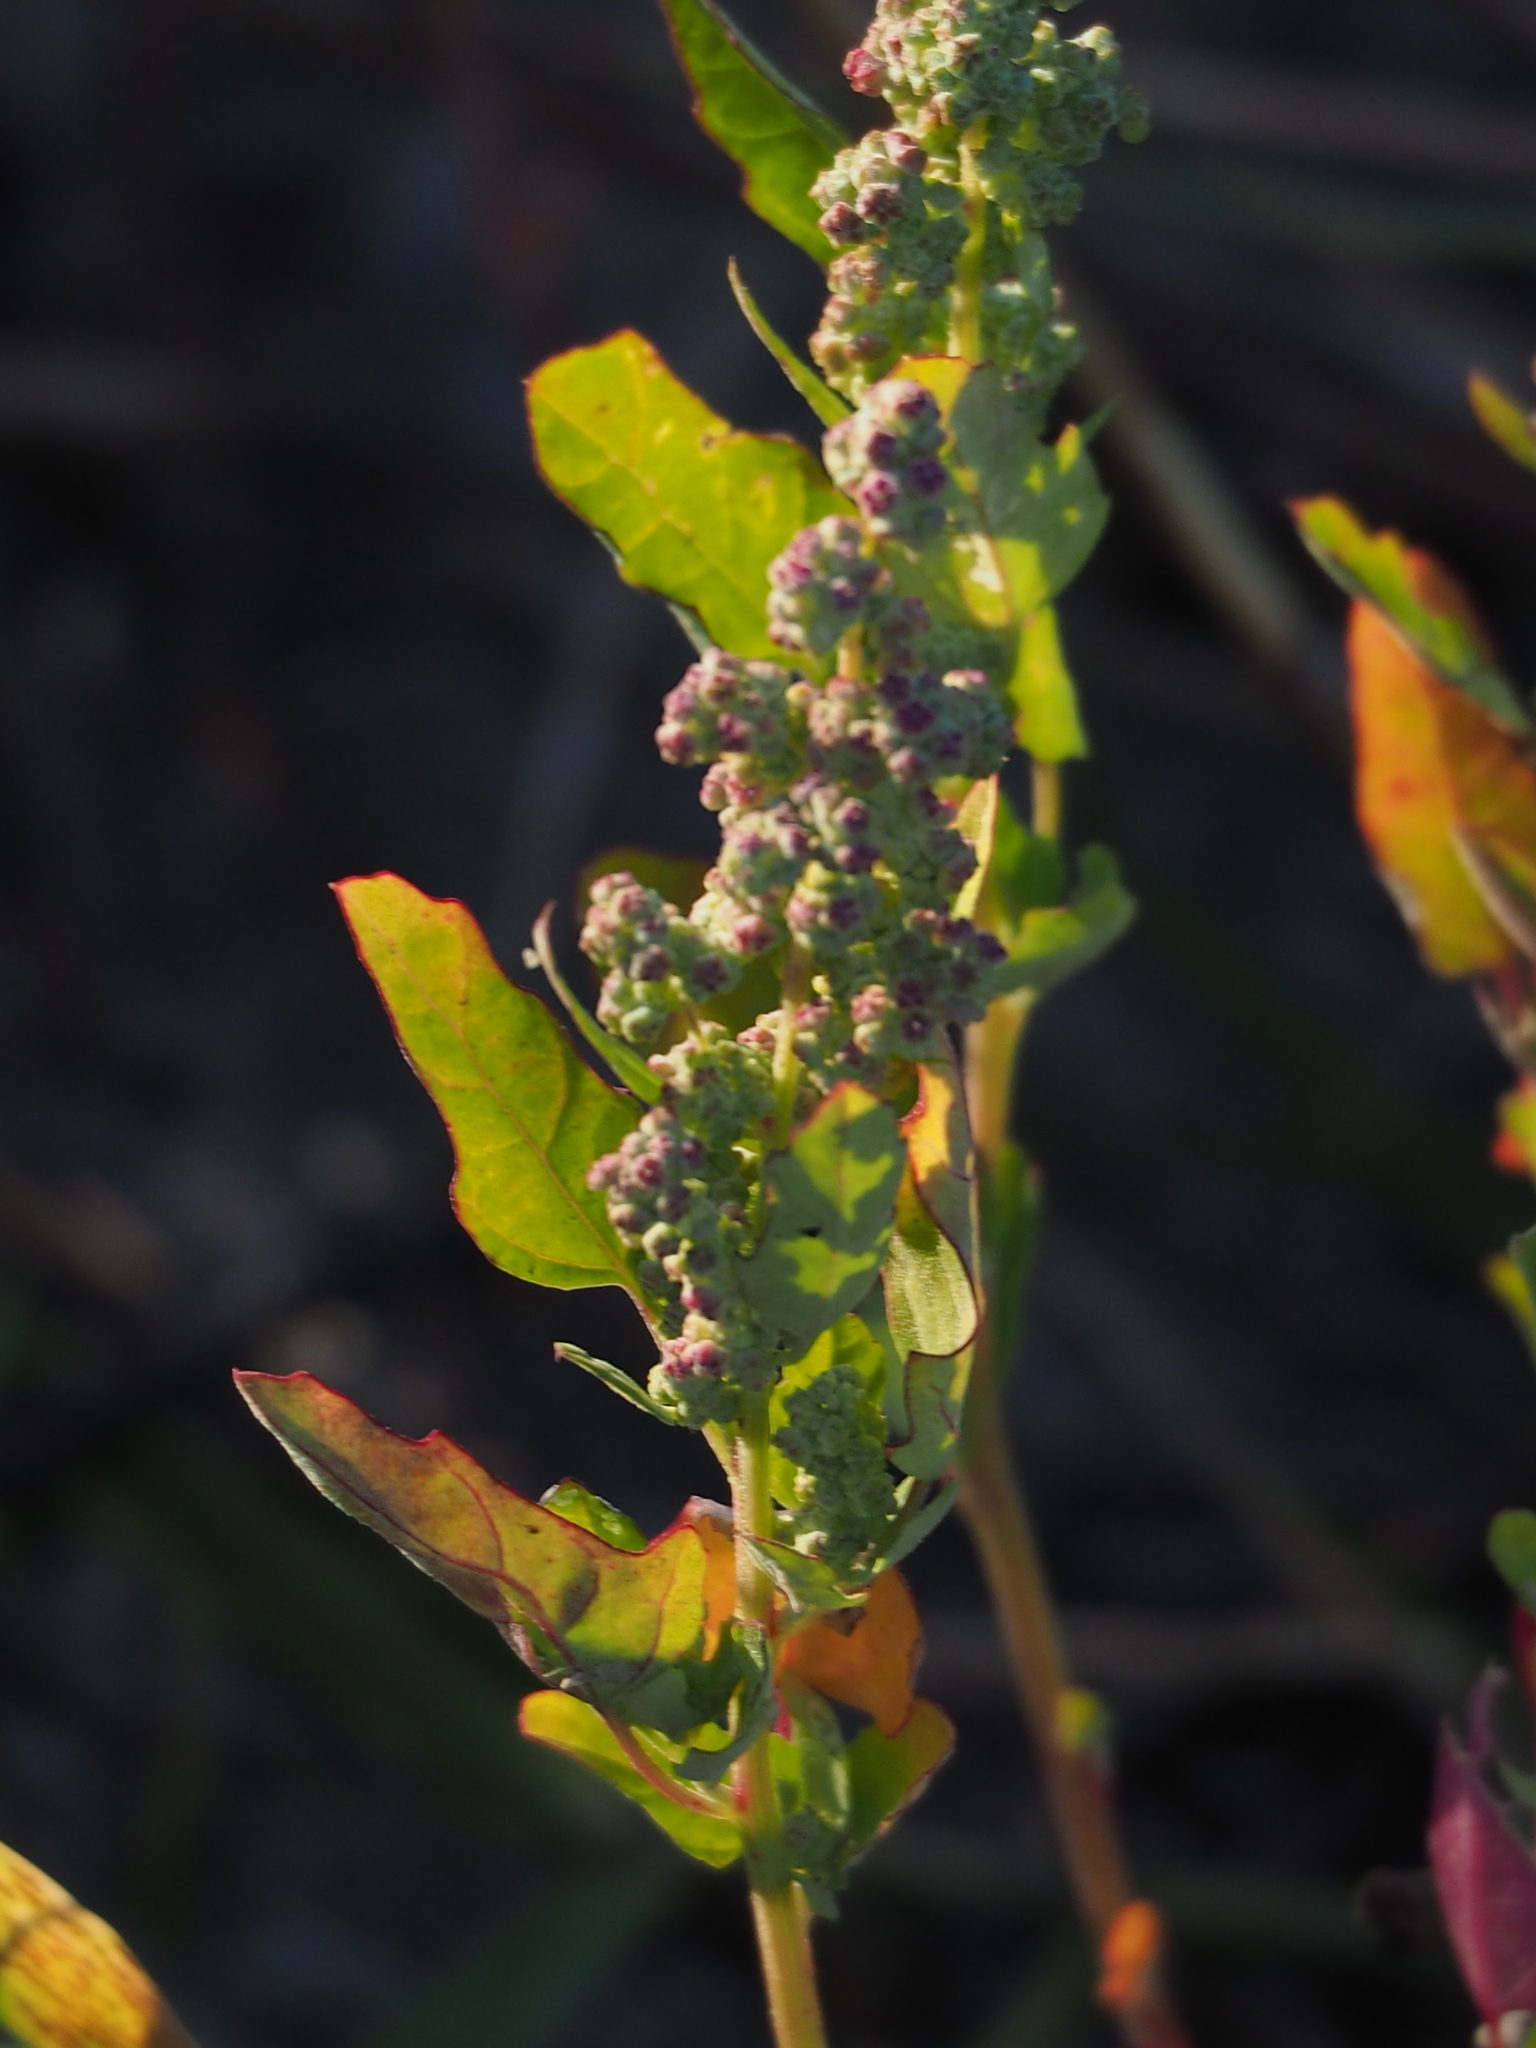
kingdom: Plantae
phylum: Tracheophyta
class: Magnoliopsida
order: Caryophyllales
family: Amaranthaceae
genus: Chenopodium
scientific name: Chenopodium ficifolium
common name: Fig-leaved goosefoot
